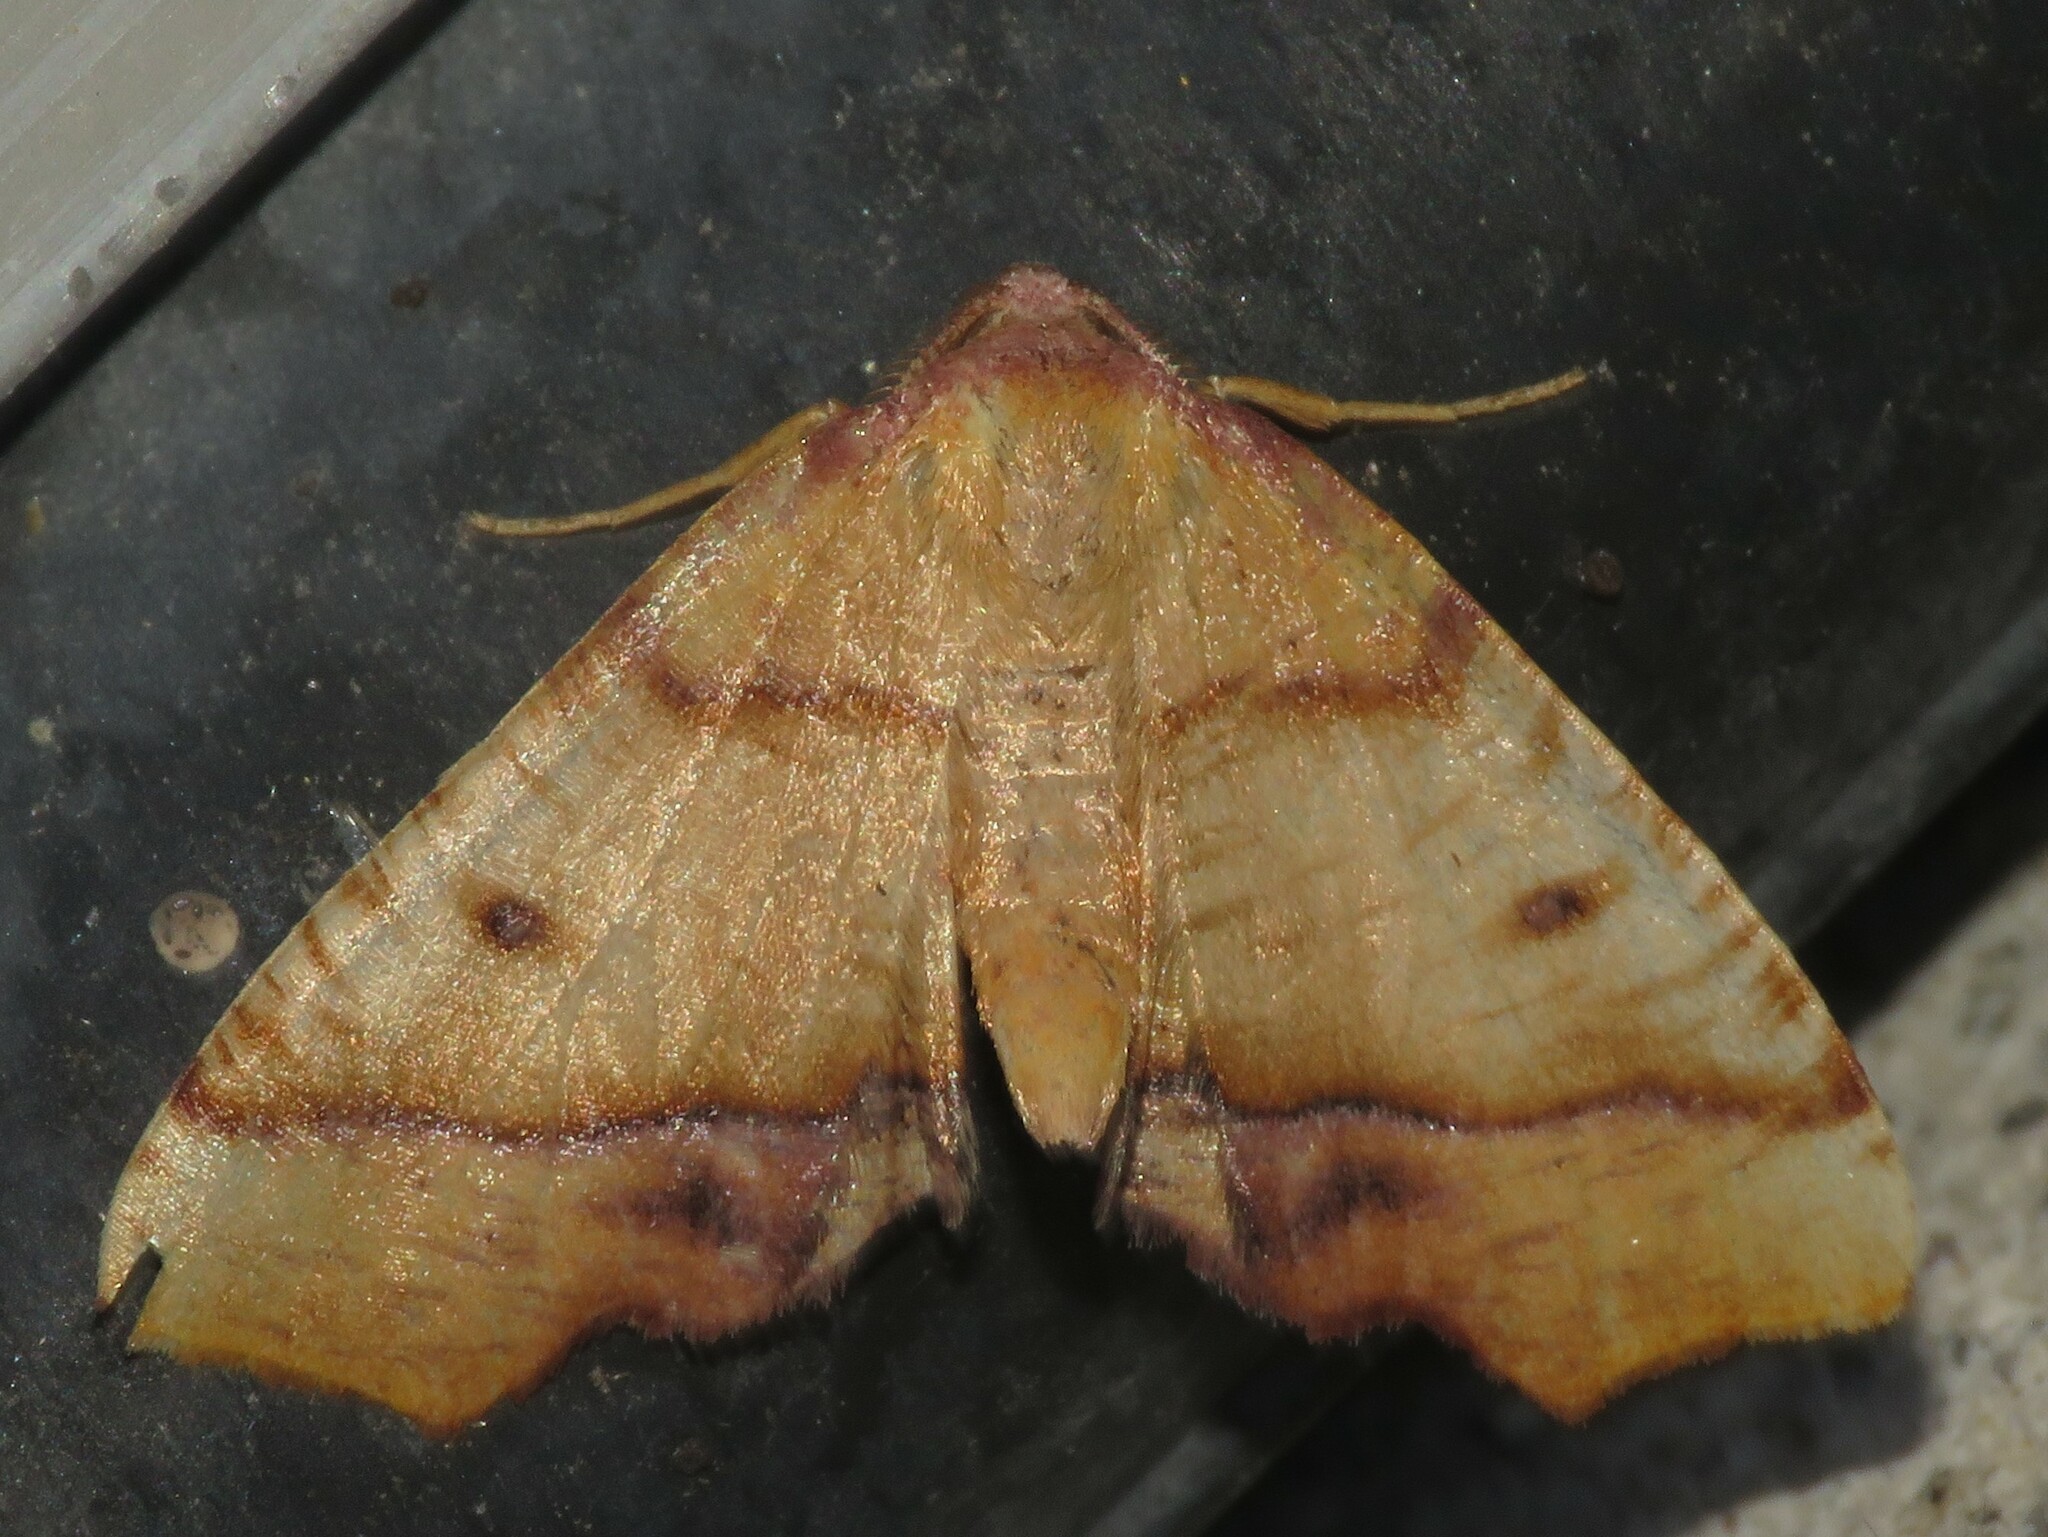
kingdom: Animalia
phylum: Arthropoda
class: Insecta
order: Lepidoptera
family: Geometridae
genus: Plagodis
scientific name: Plagodis phlogosaria
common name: Straight-lined plagodis
